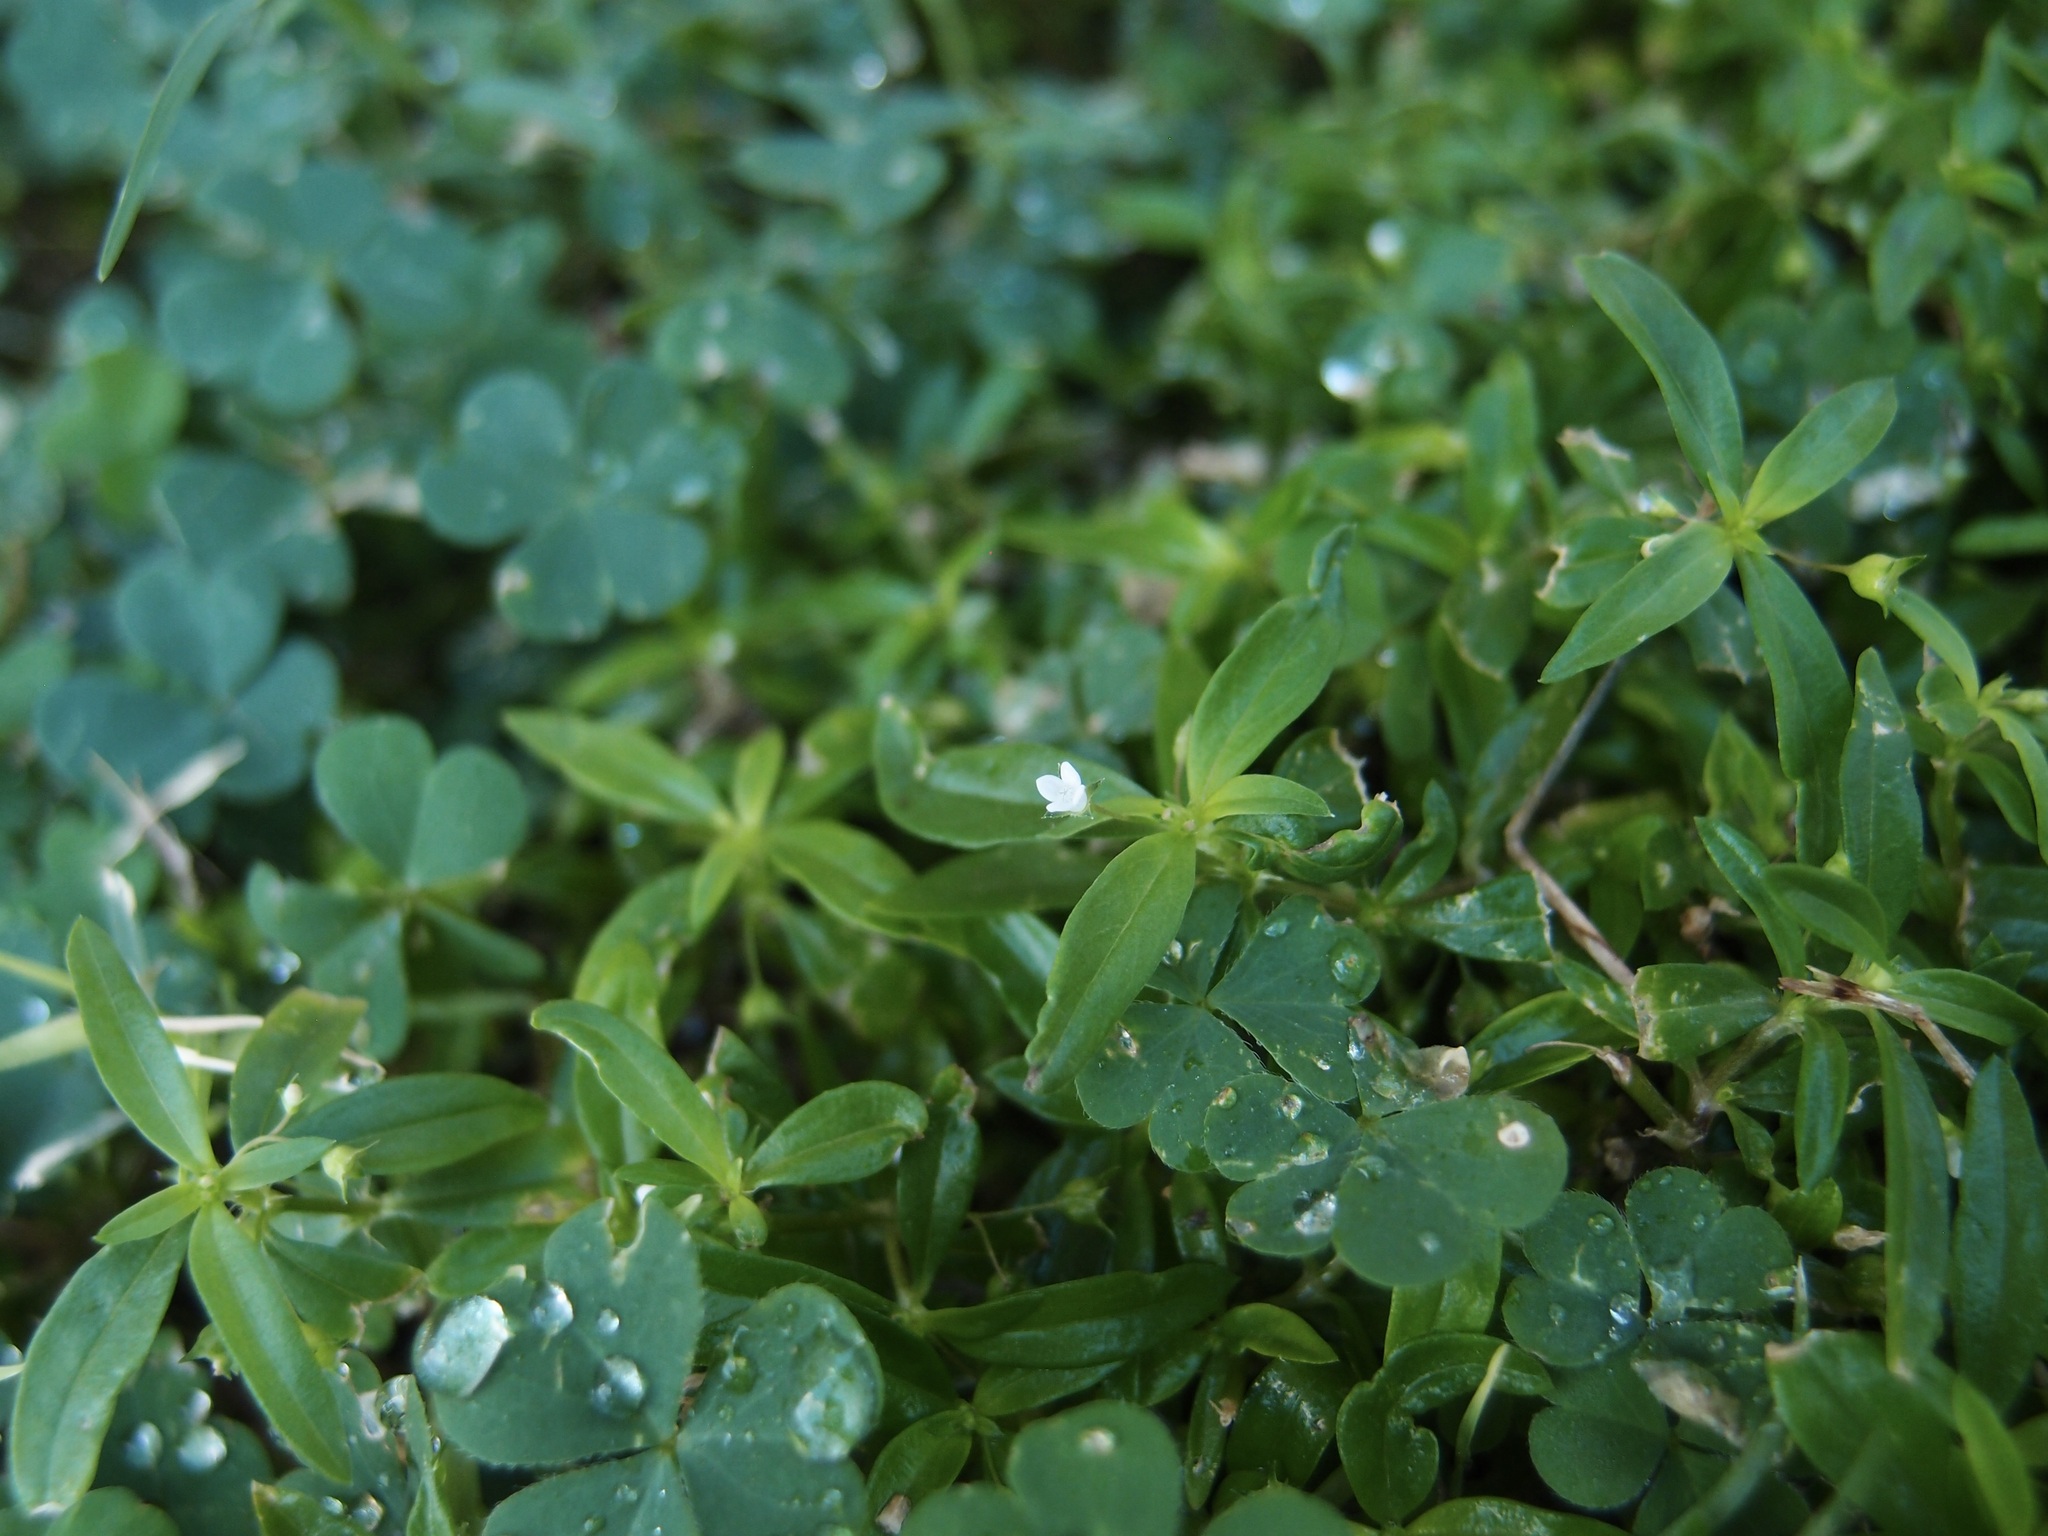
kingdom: Plantae
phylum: Tracheophyta
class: Magnoliopsida
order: Gentianales
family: Rubiaceae
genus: Oldenlandia
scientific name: Oldenlandia corymbosa
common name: Flat-top mille graines
